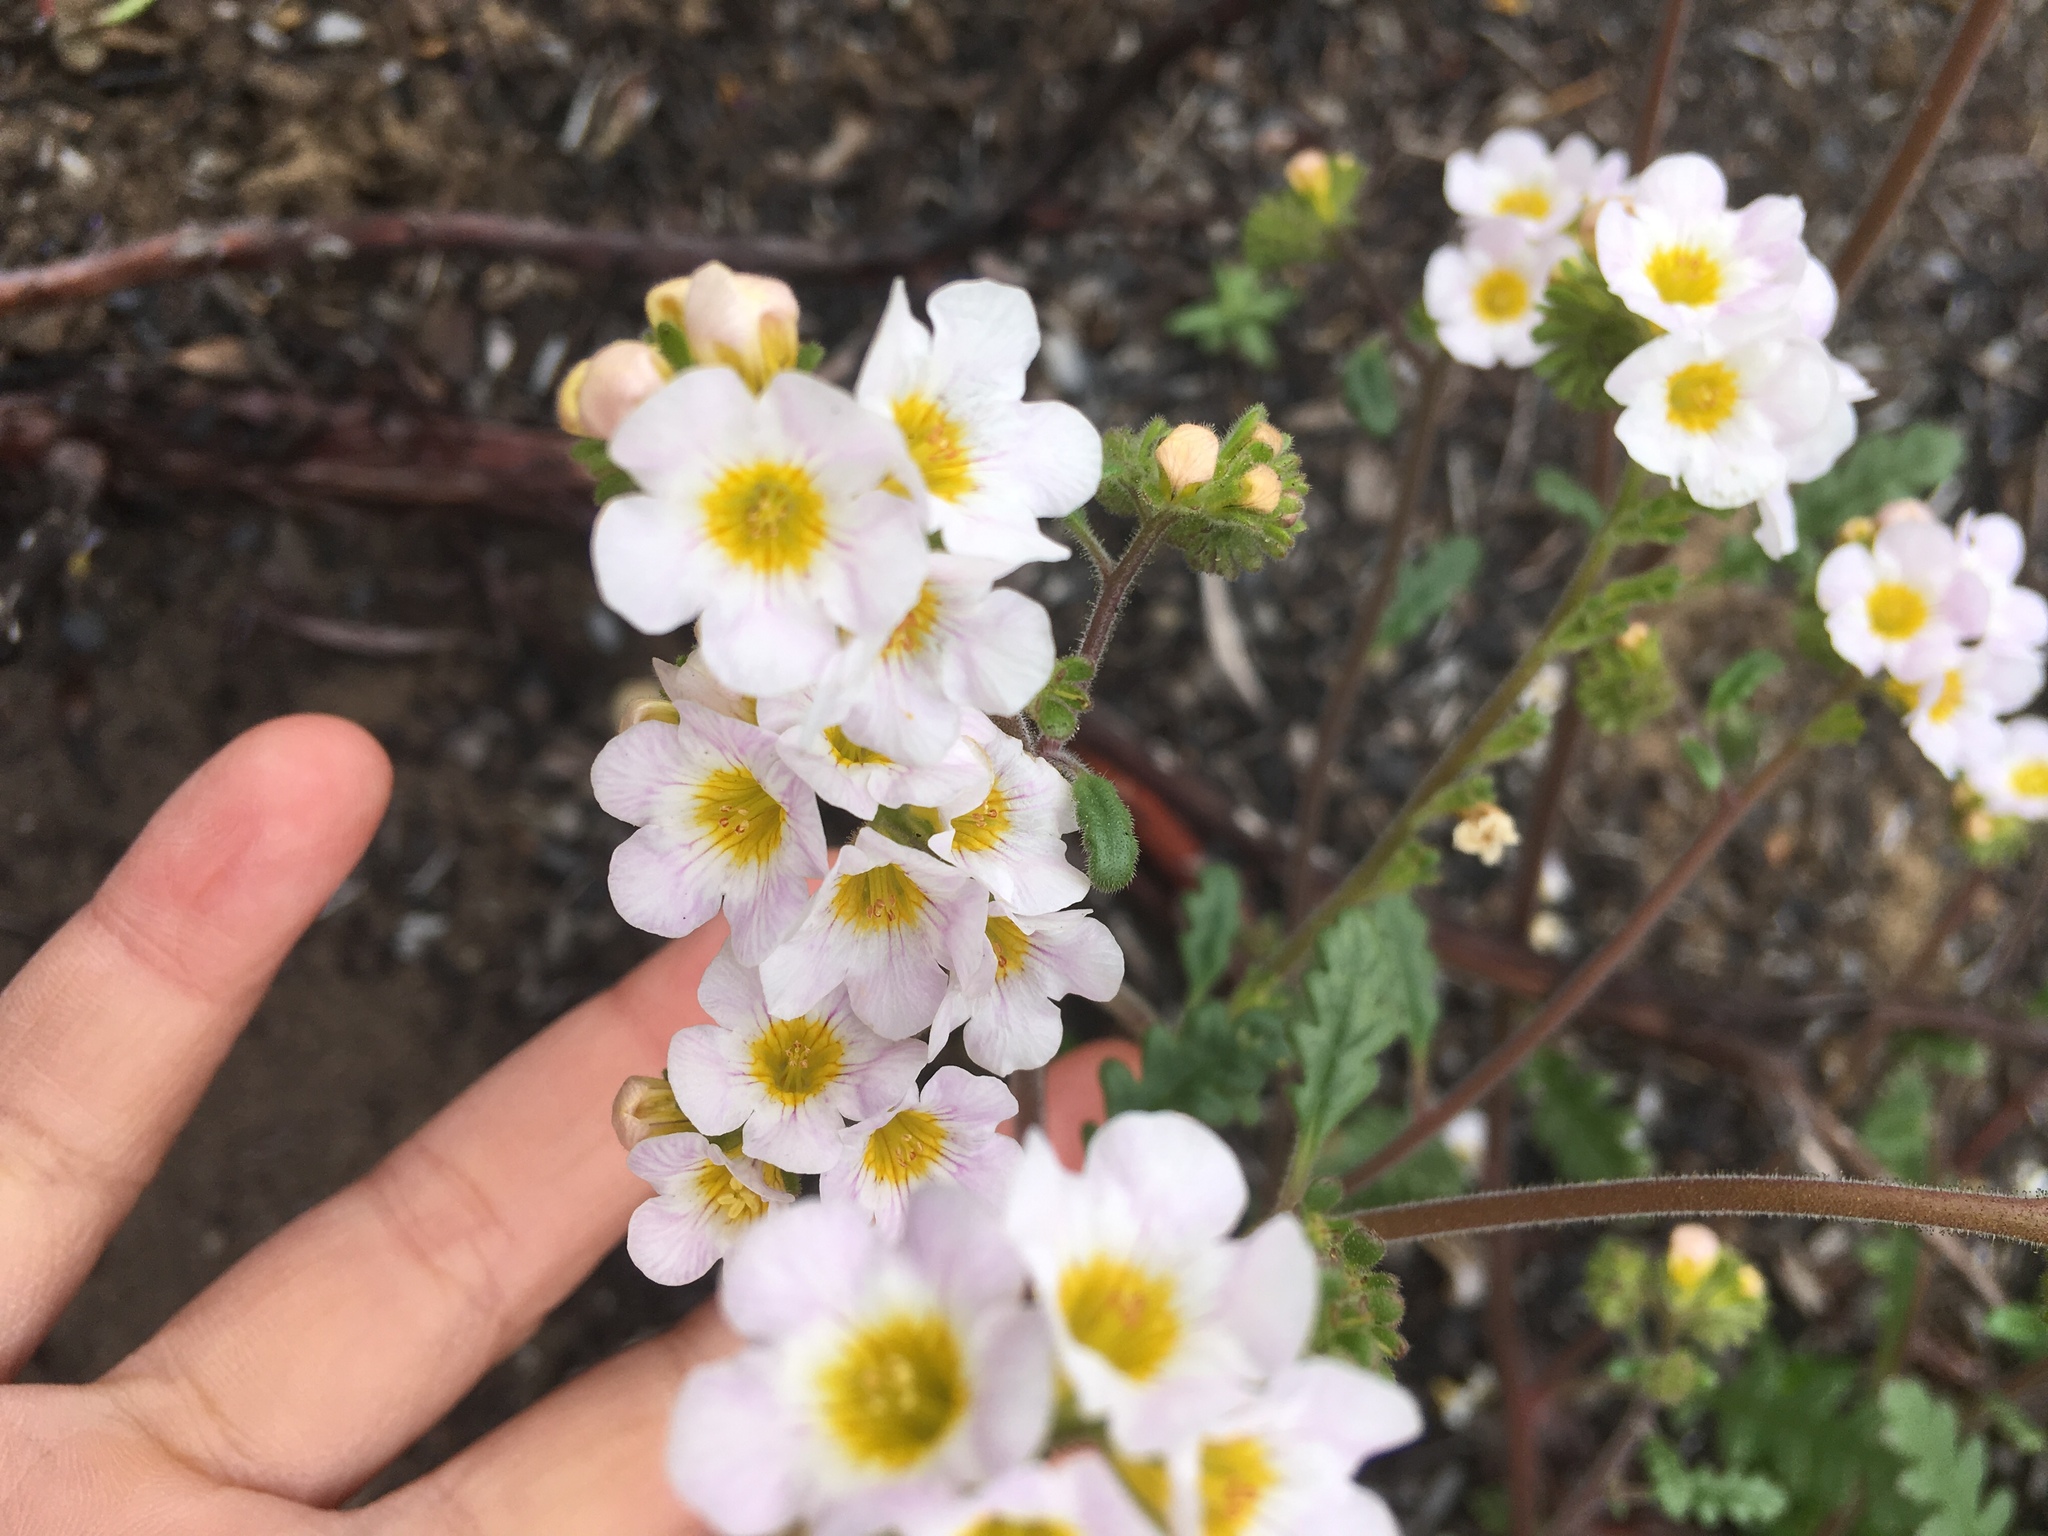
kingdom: Plantae
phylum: Tracheophyta
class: Magnoliopsida
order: Boraginales
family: Hydrophyllaceae
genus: Phacelia
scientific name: Phacelia brachyloba
